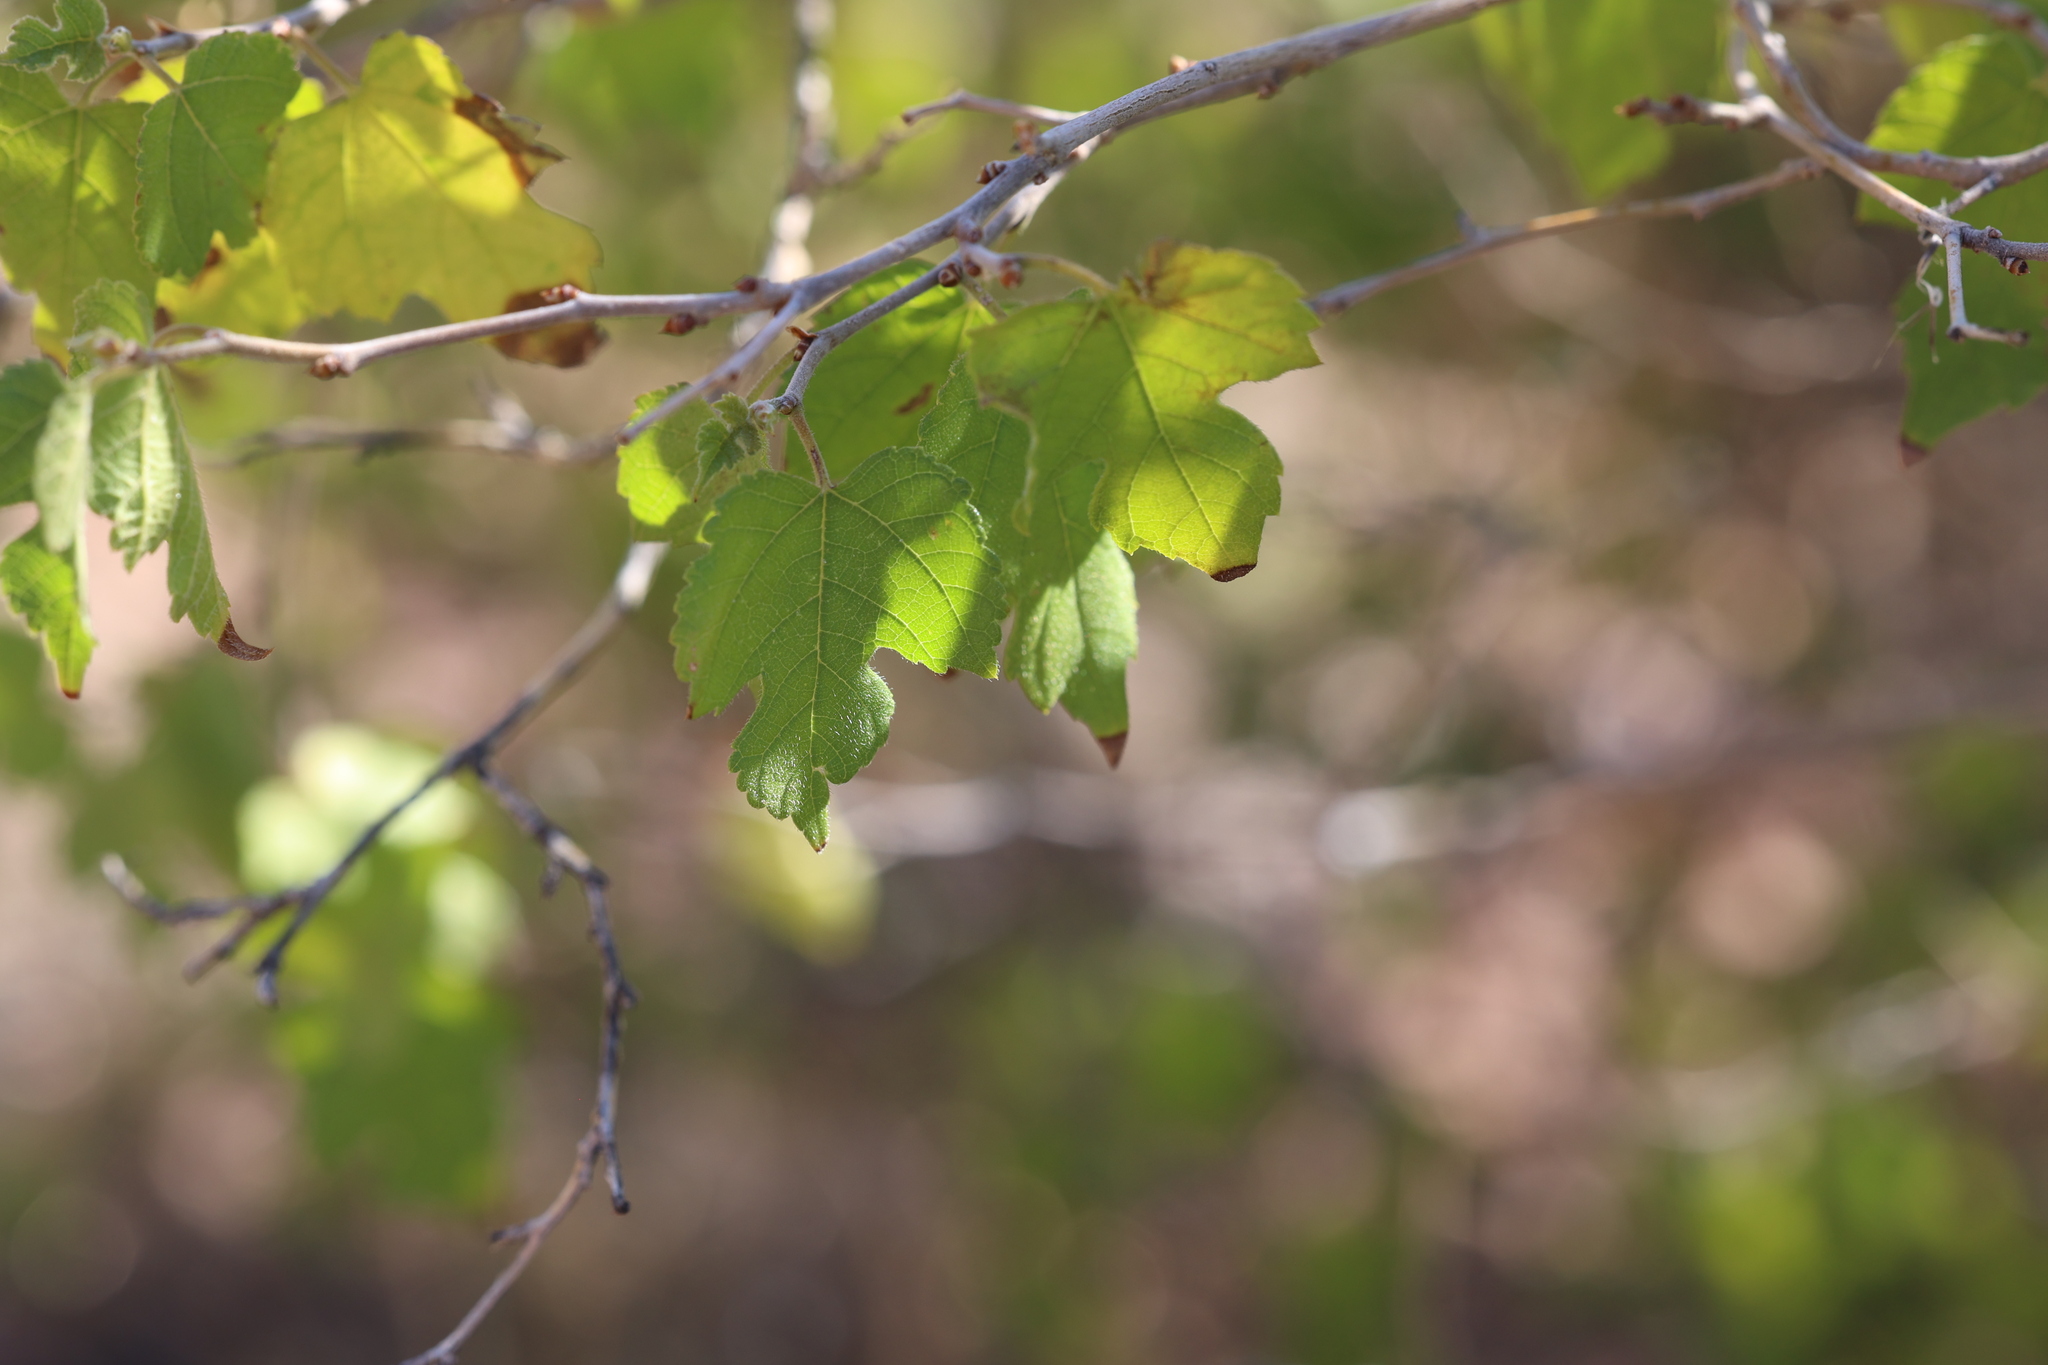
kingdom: Plantae
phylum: Tracheophyta
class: Magnoliopsida
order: Rosales
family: Moraceae
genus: Morus
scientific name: Morus microphylla
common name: Mexican mulberry
